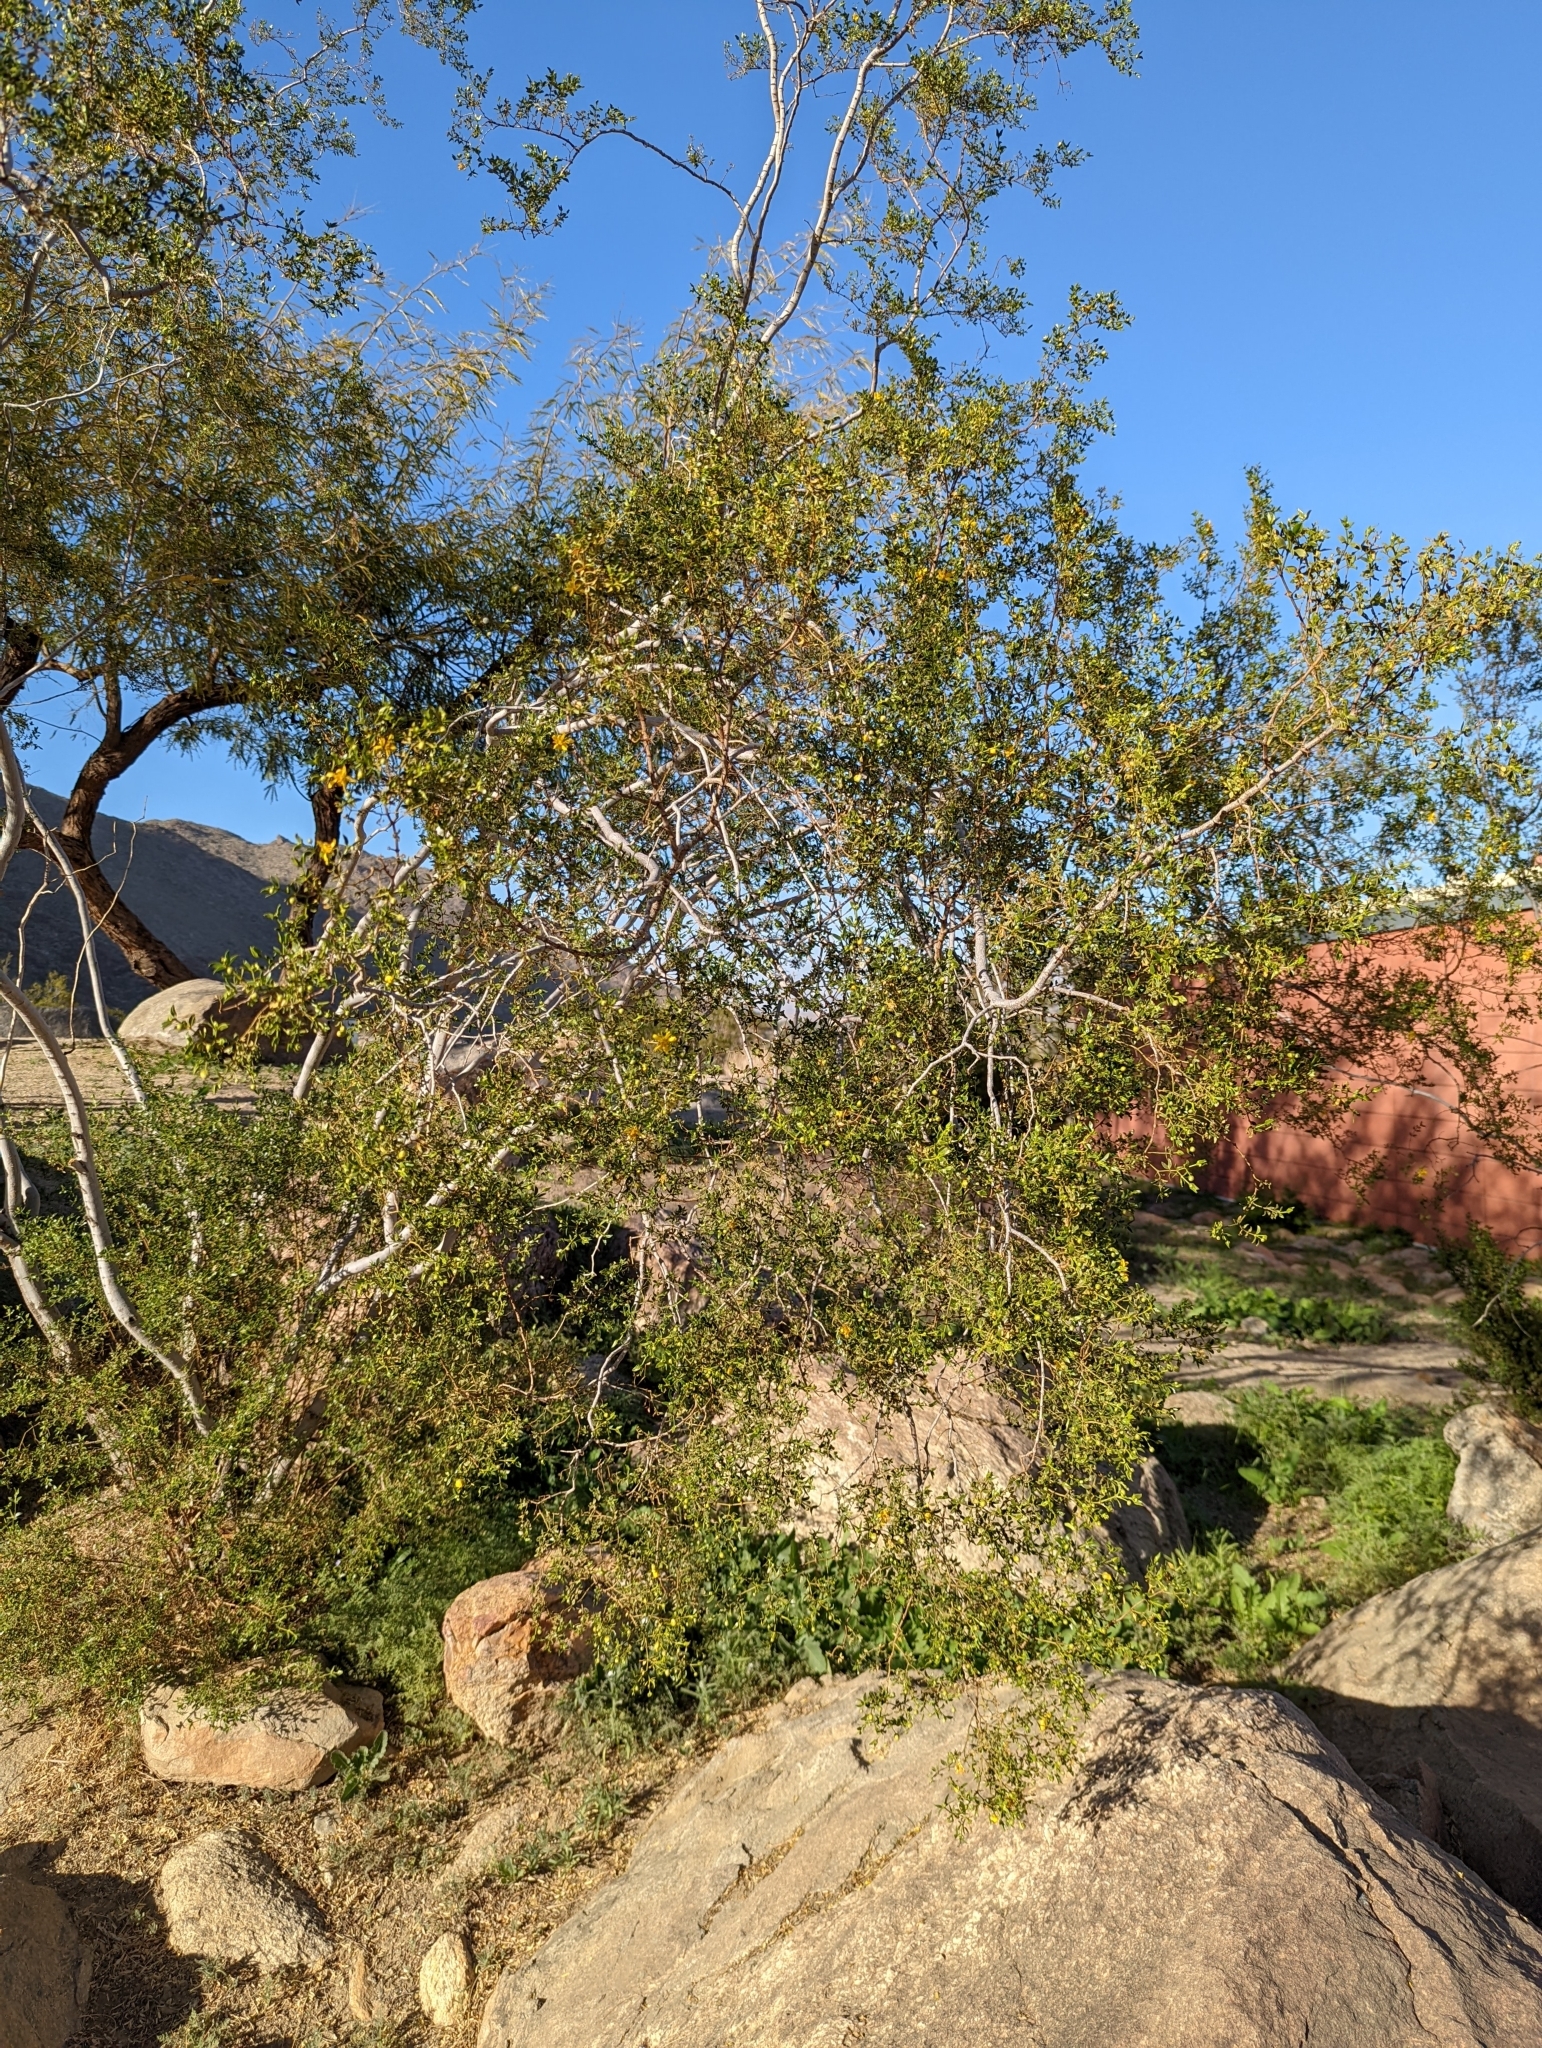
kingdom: Plantae
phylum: Tracheophyta
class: Magnoliopsida
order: Zygophyllales
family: Zygophyllaceae
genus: Larrea
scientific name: Larrea tridentata
